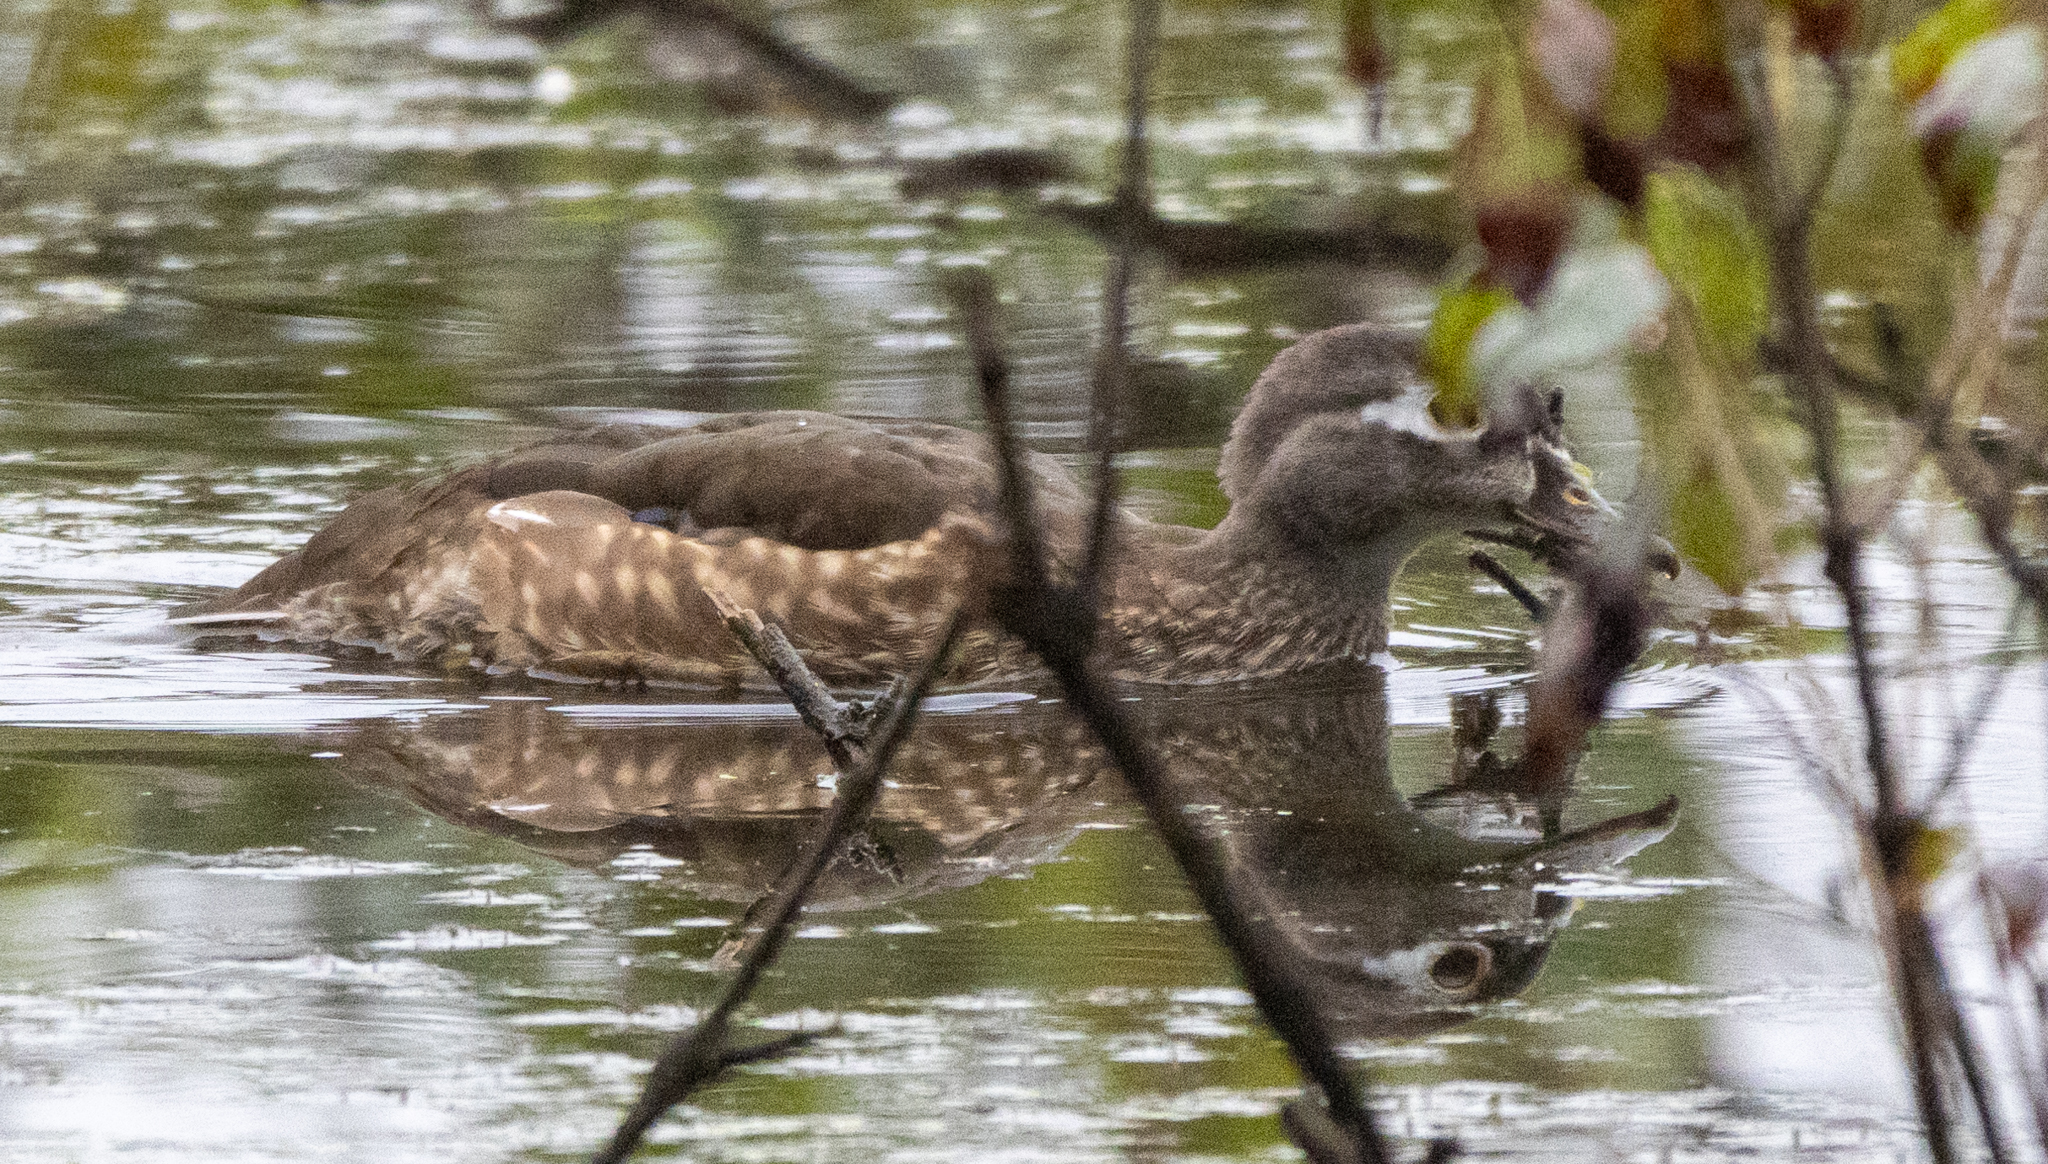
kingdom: Animalia
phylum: Chordata
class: Aves
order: Anseriformes
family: Anatidae
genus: Aix
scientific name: Aix sponsa
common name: Wood duck
